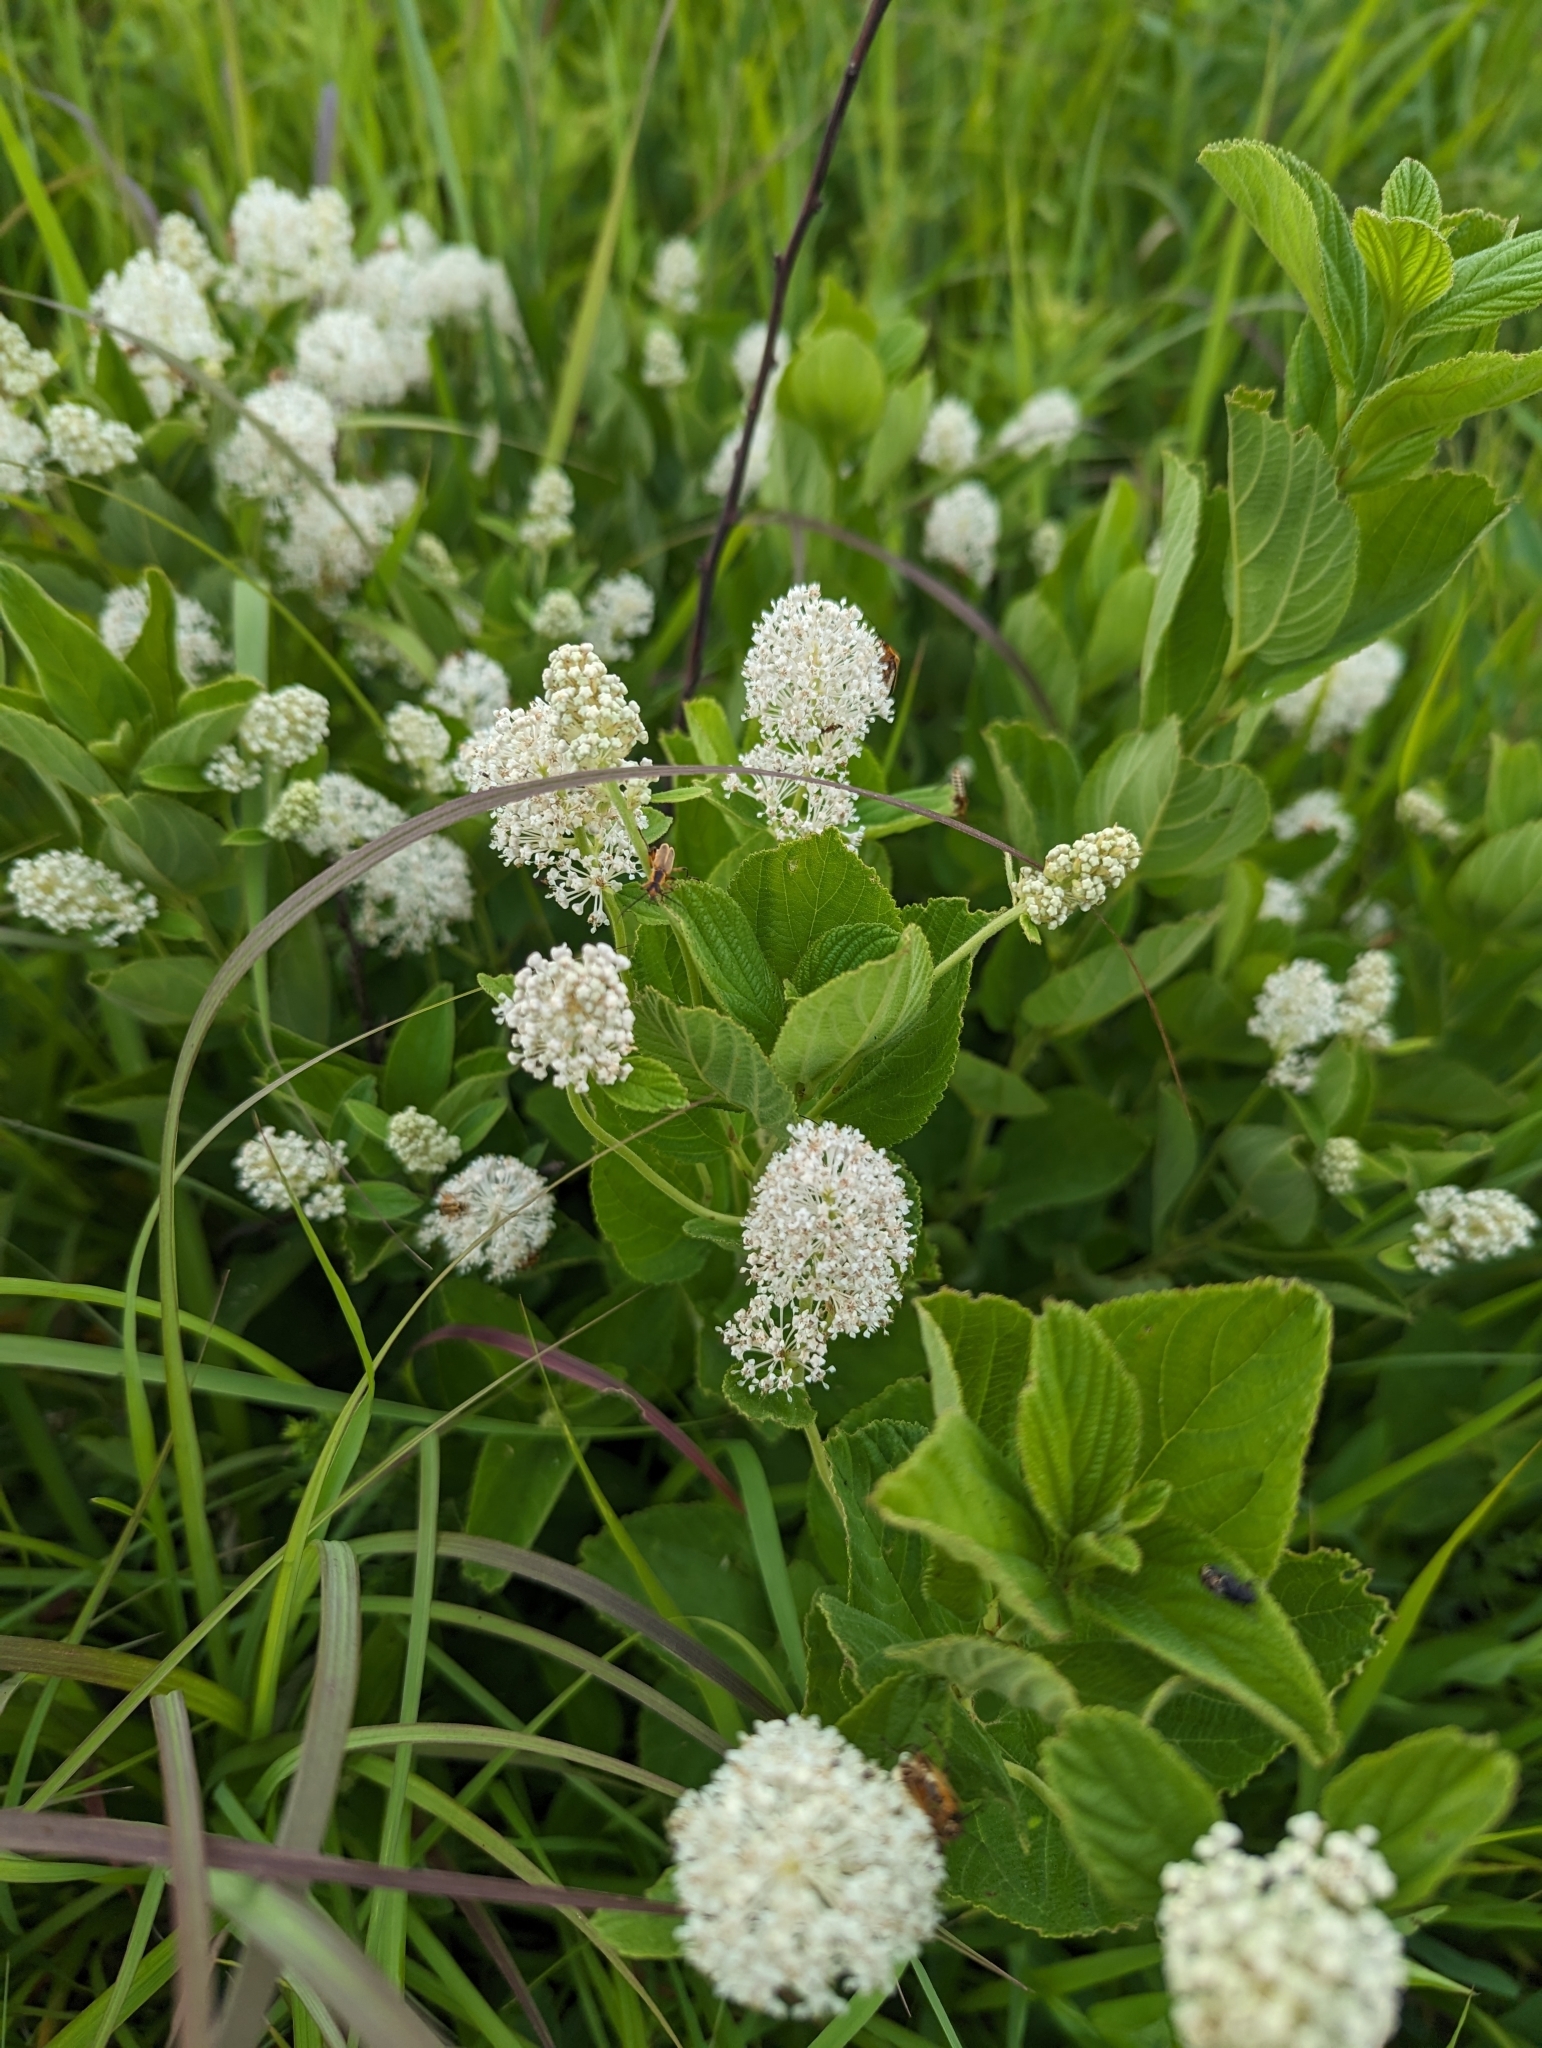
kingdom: Plantae
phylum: Tracheophyta
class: Magnoliopsida
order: Rosales
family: Rhamnaceae
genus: Ceanothus
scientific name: Ceanothus americanus
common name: Redroot
